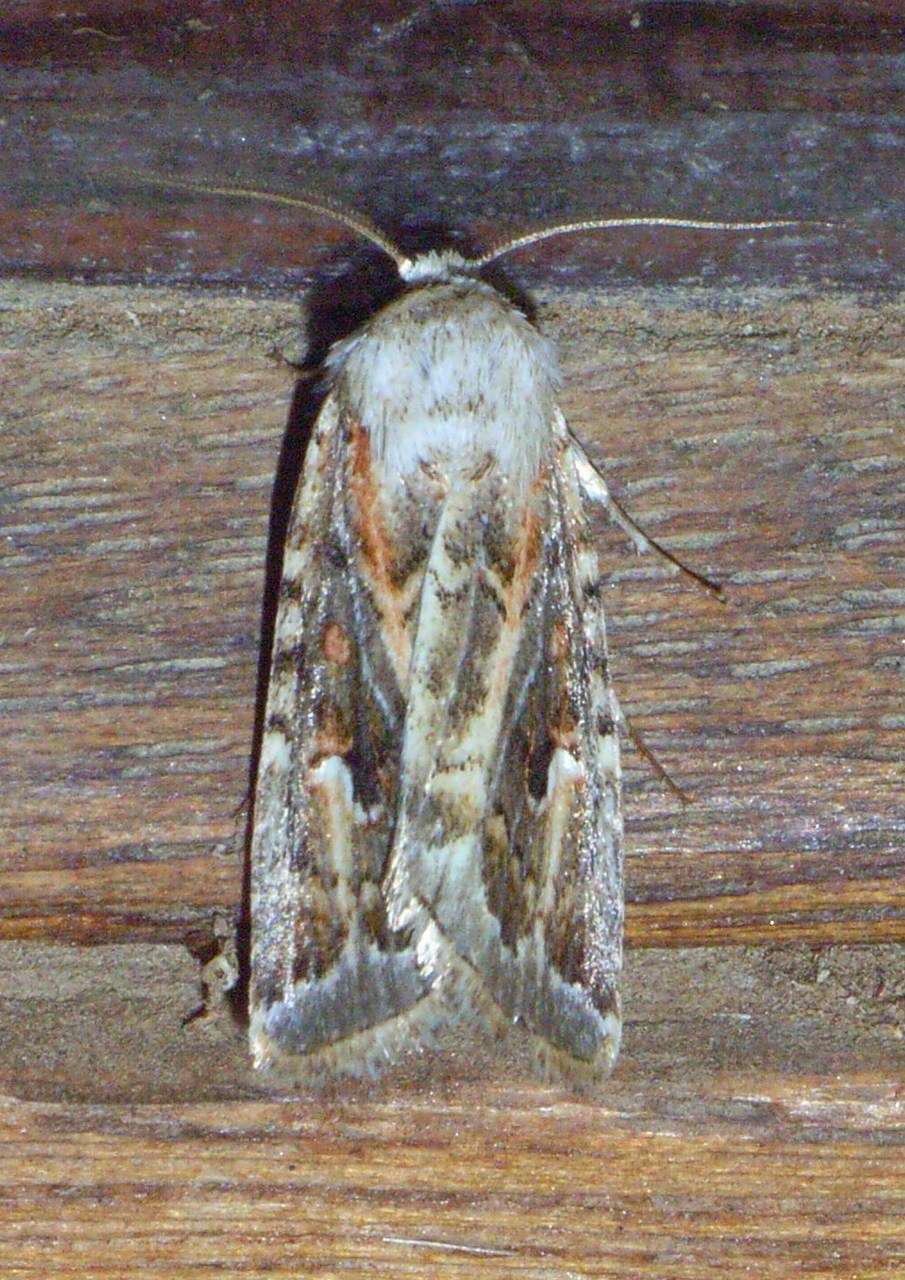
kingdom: Animalia
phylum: Arthropoda
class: Insecta
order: Lepidoptera
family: Noctuidae
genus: Proteuxoa
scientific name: Proteuxoa florescens
